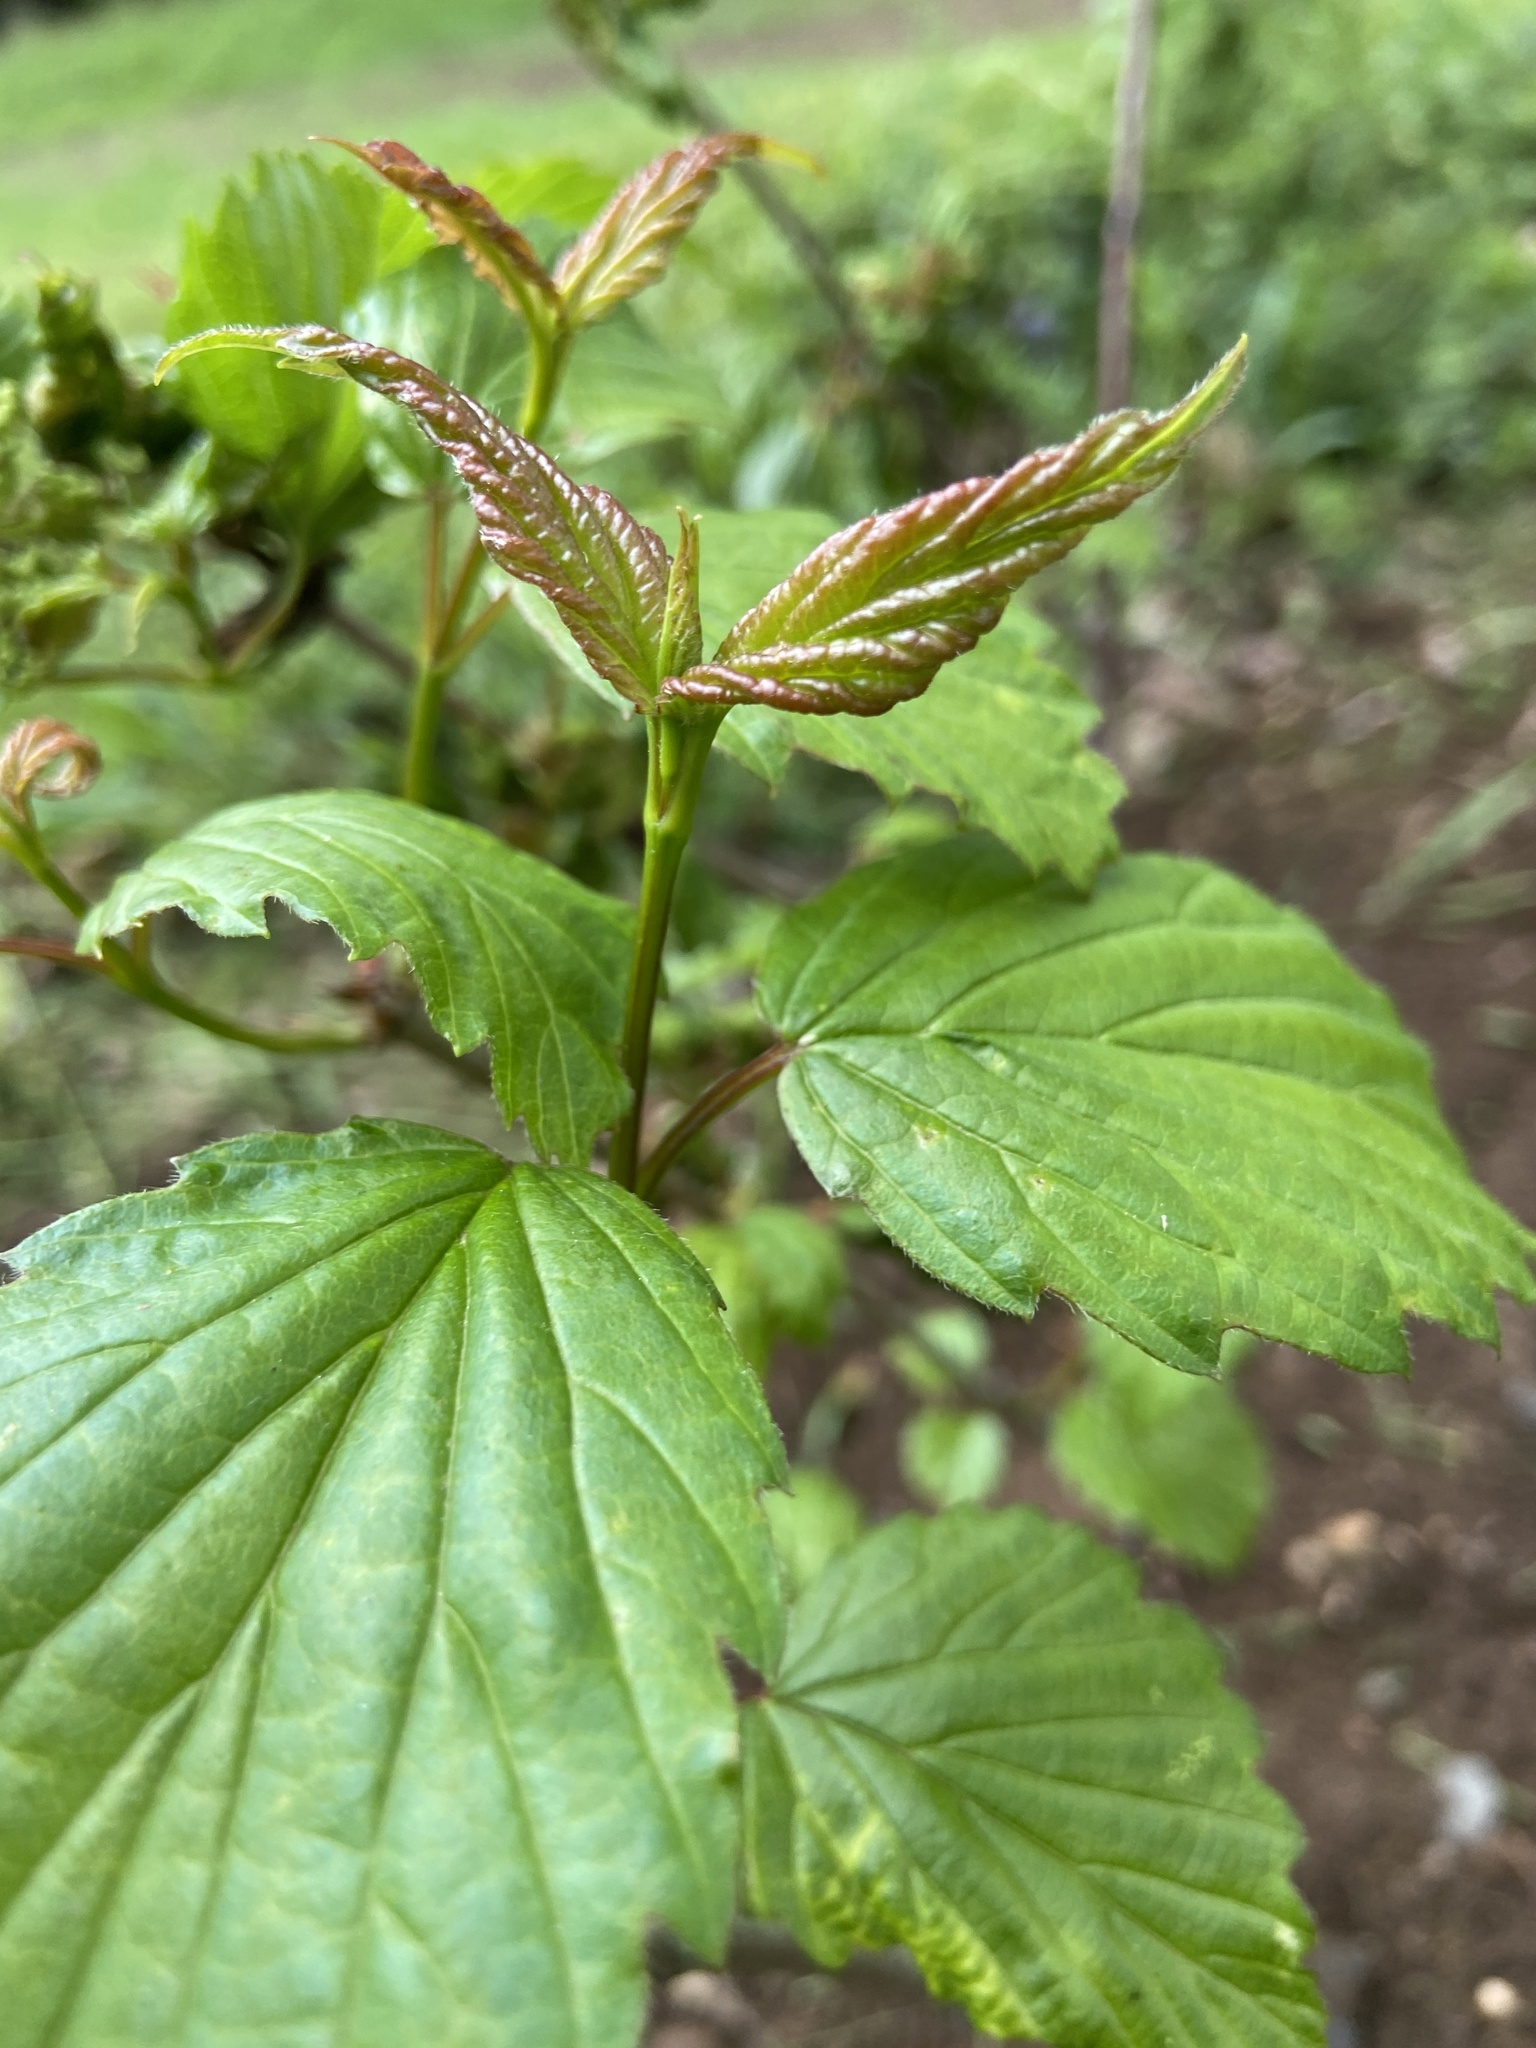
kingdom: Plantae
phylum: Tracheophyta
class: Magnoliopsida
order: Dipsacales
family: Viburnaceae
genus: Viburnum
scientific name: Viburnum dentatum
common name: Arrow-wood
